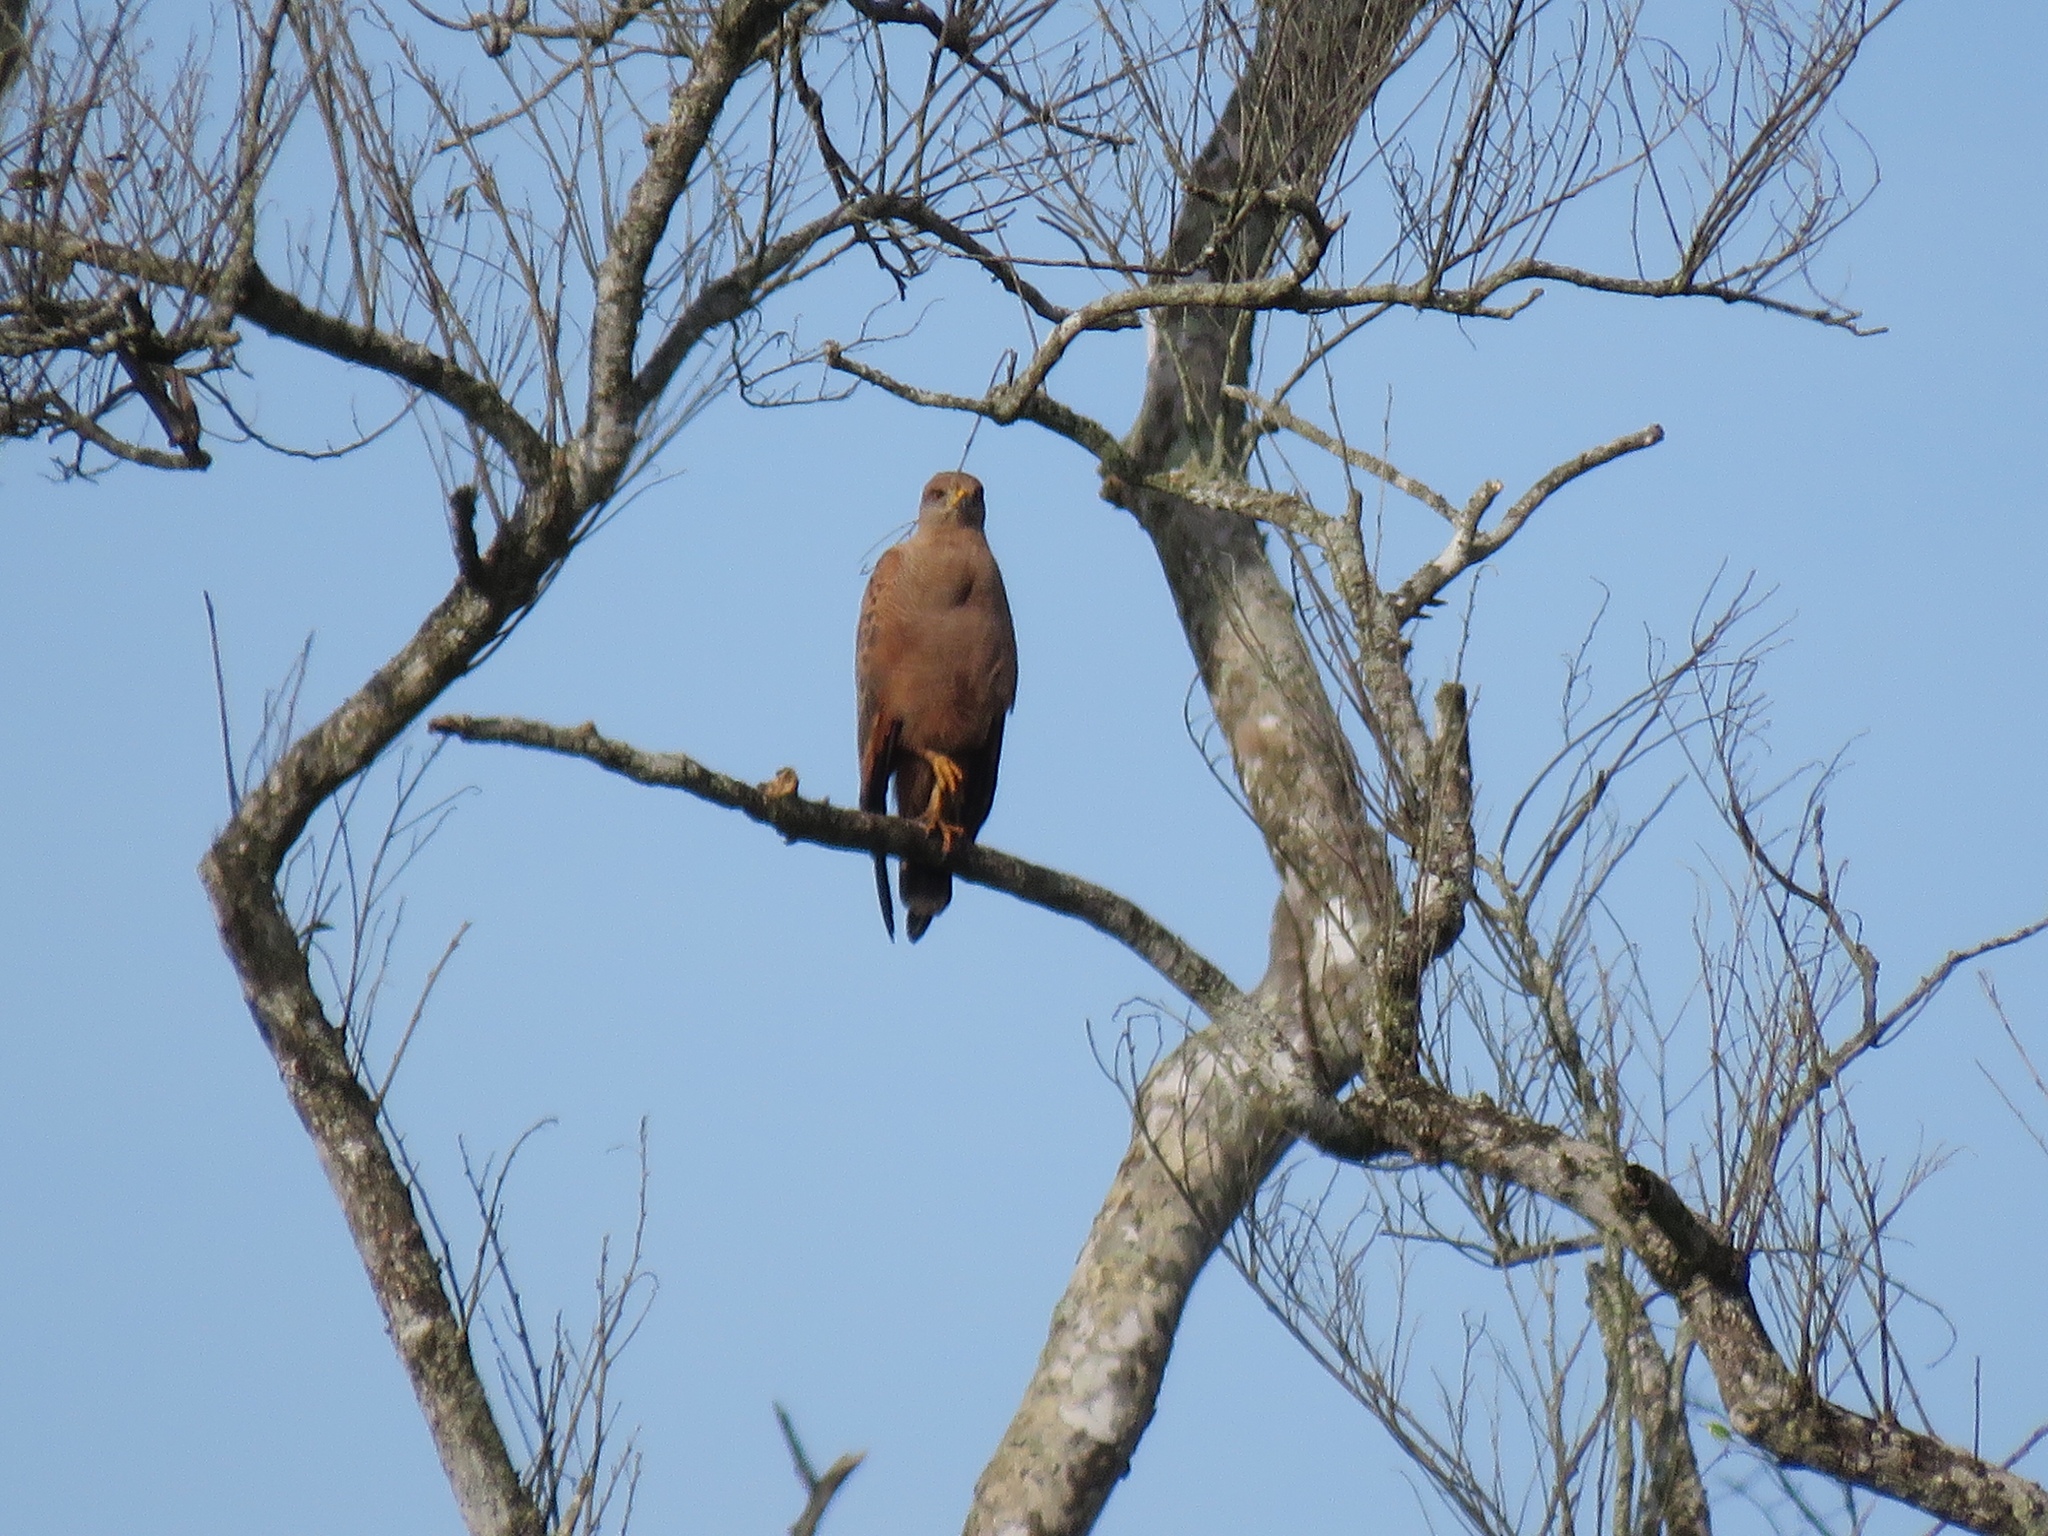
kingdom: Animalia
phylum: Chordata
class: Aves
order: Accipitriformes
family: Accipitridae
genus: Buteogallus
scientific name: Buteogallus meridionalis
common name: Savanna hawk
